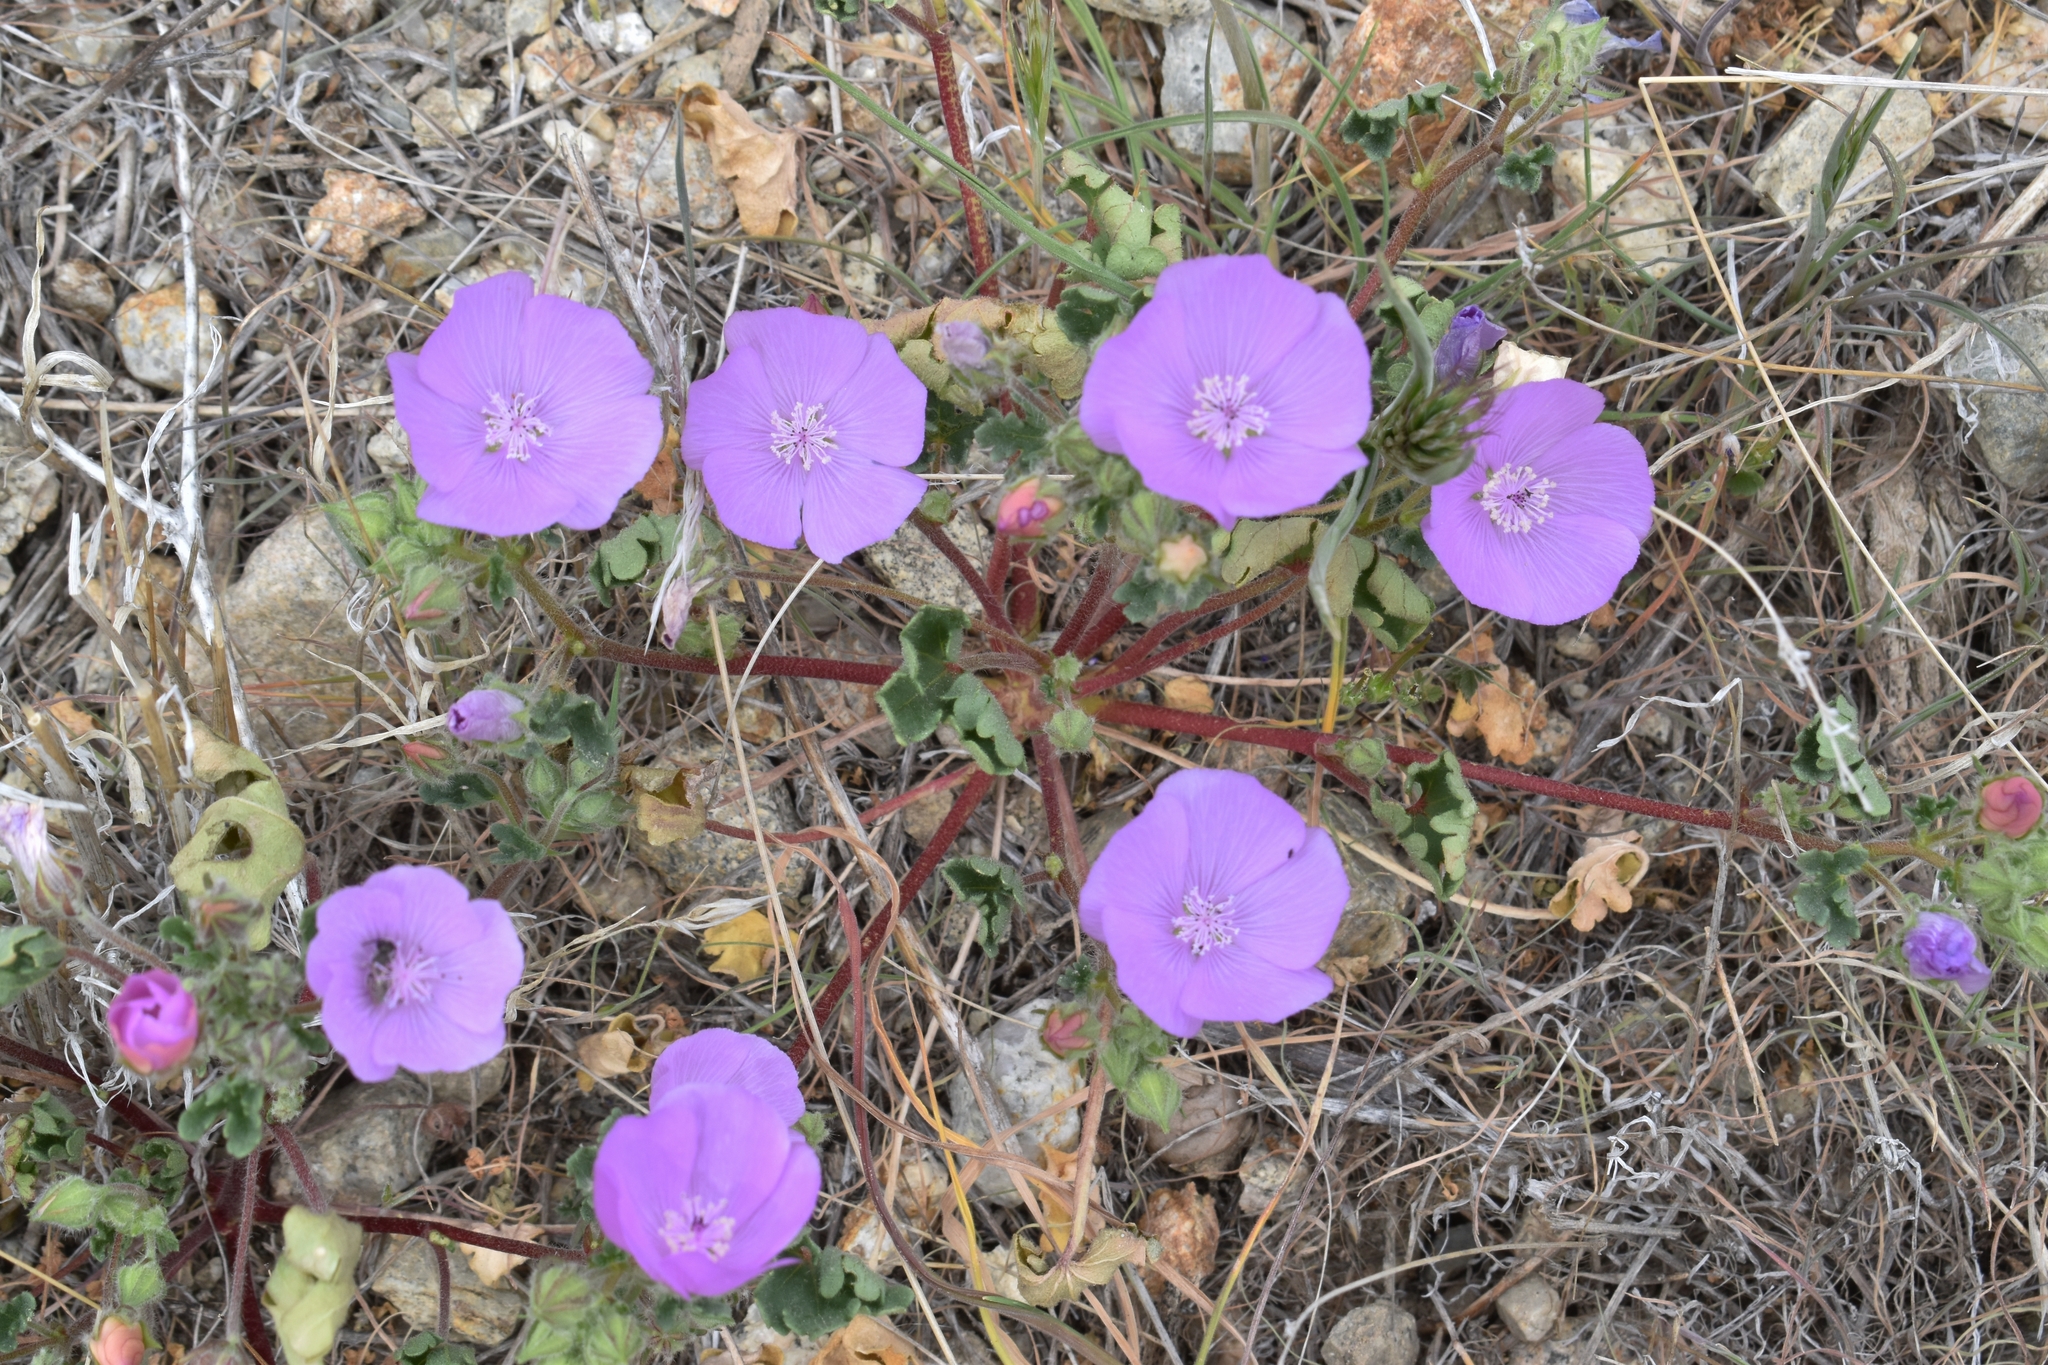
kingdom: Plantae
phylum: Tracheophyta
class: Magnoliopsida
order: Malvales
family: Malvaceae
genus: Eremalche
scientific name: Eremalche parryi
